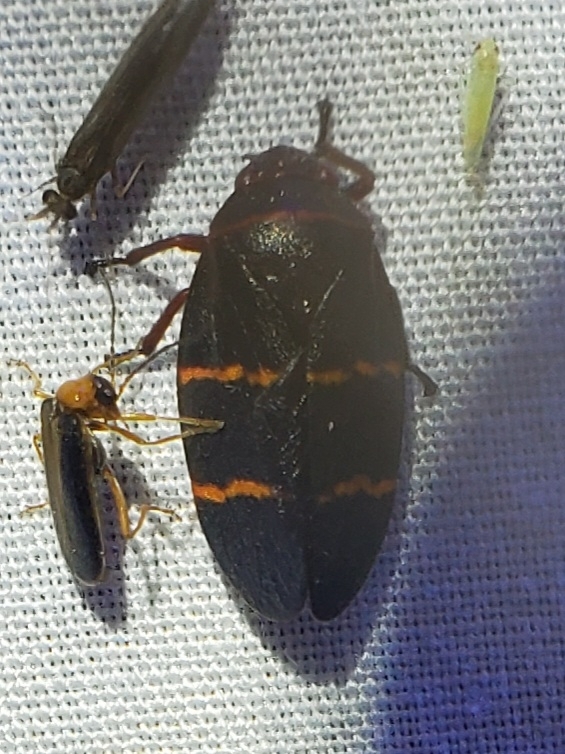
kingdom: Animalia
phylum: Arthropoda
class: Insecta
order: Hemiptera
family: Cercopidae
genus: Prosapia
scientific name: Prosapia bicincta
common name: Twolined spittlebug
